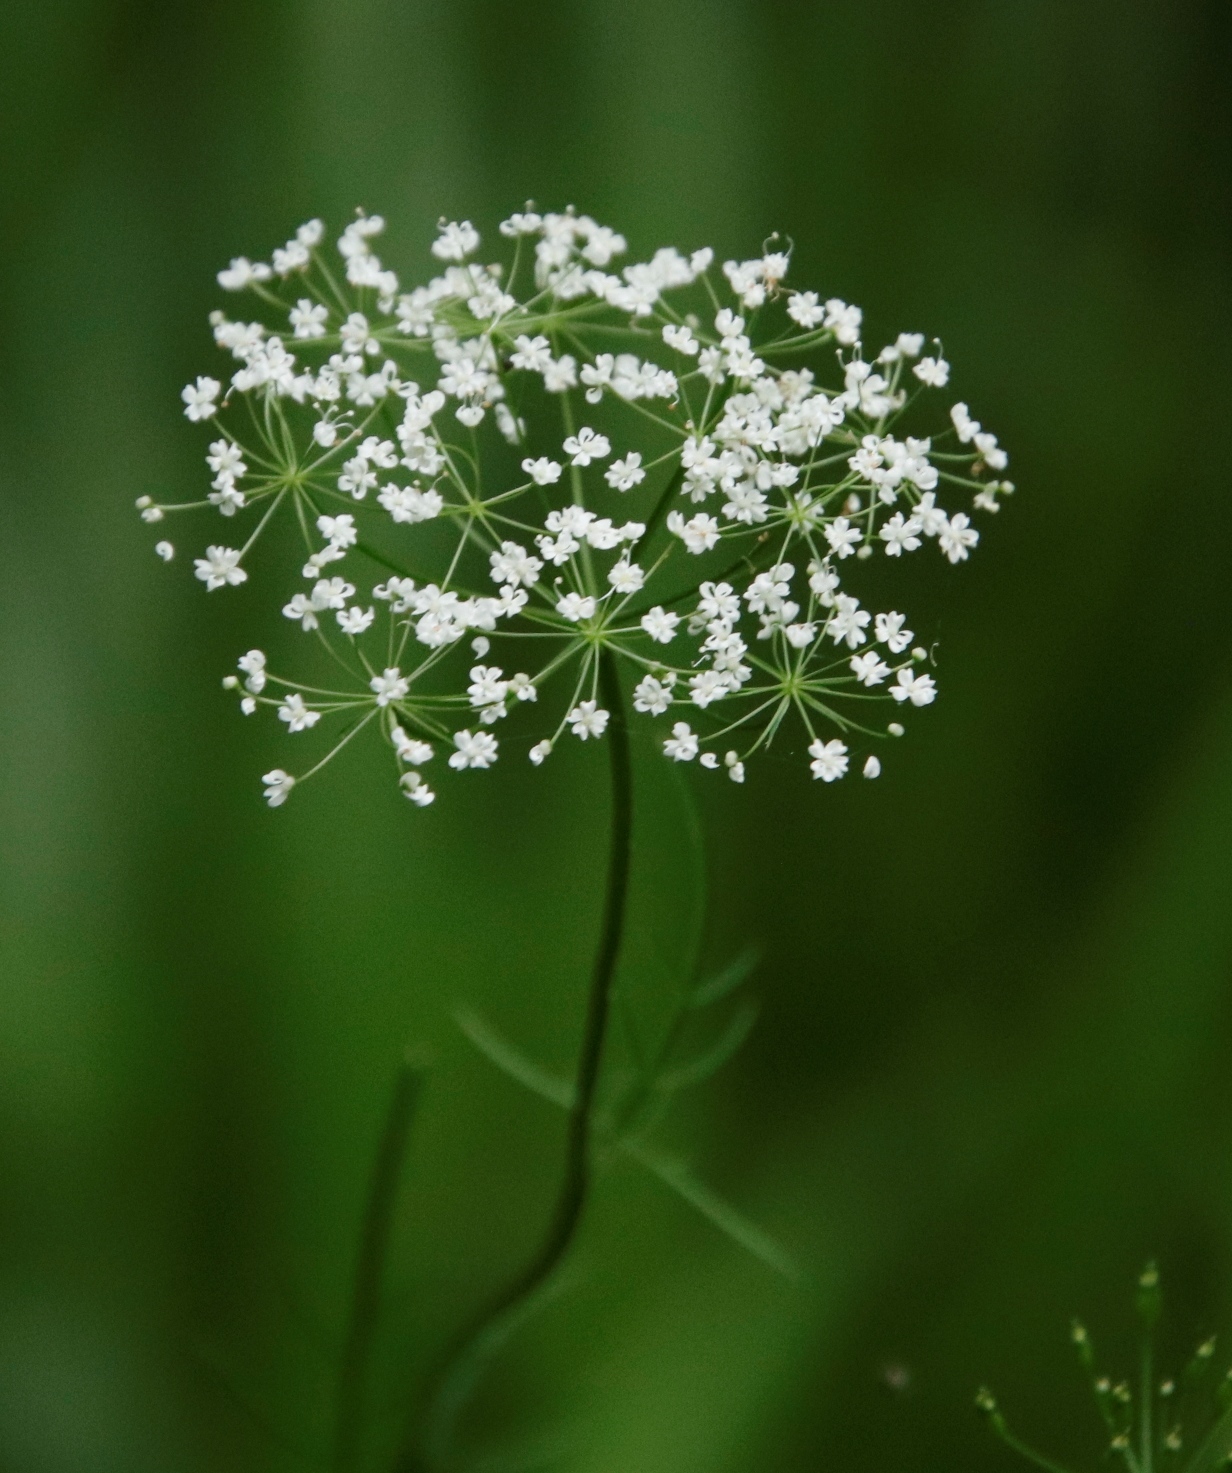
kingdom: Plantae
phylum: Tracheophyta
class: Magnoliopsida
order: Apiales
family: Apiaceae
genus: Conopodium
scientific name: Conopodium majus
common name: Pignut
